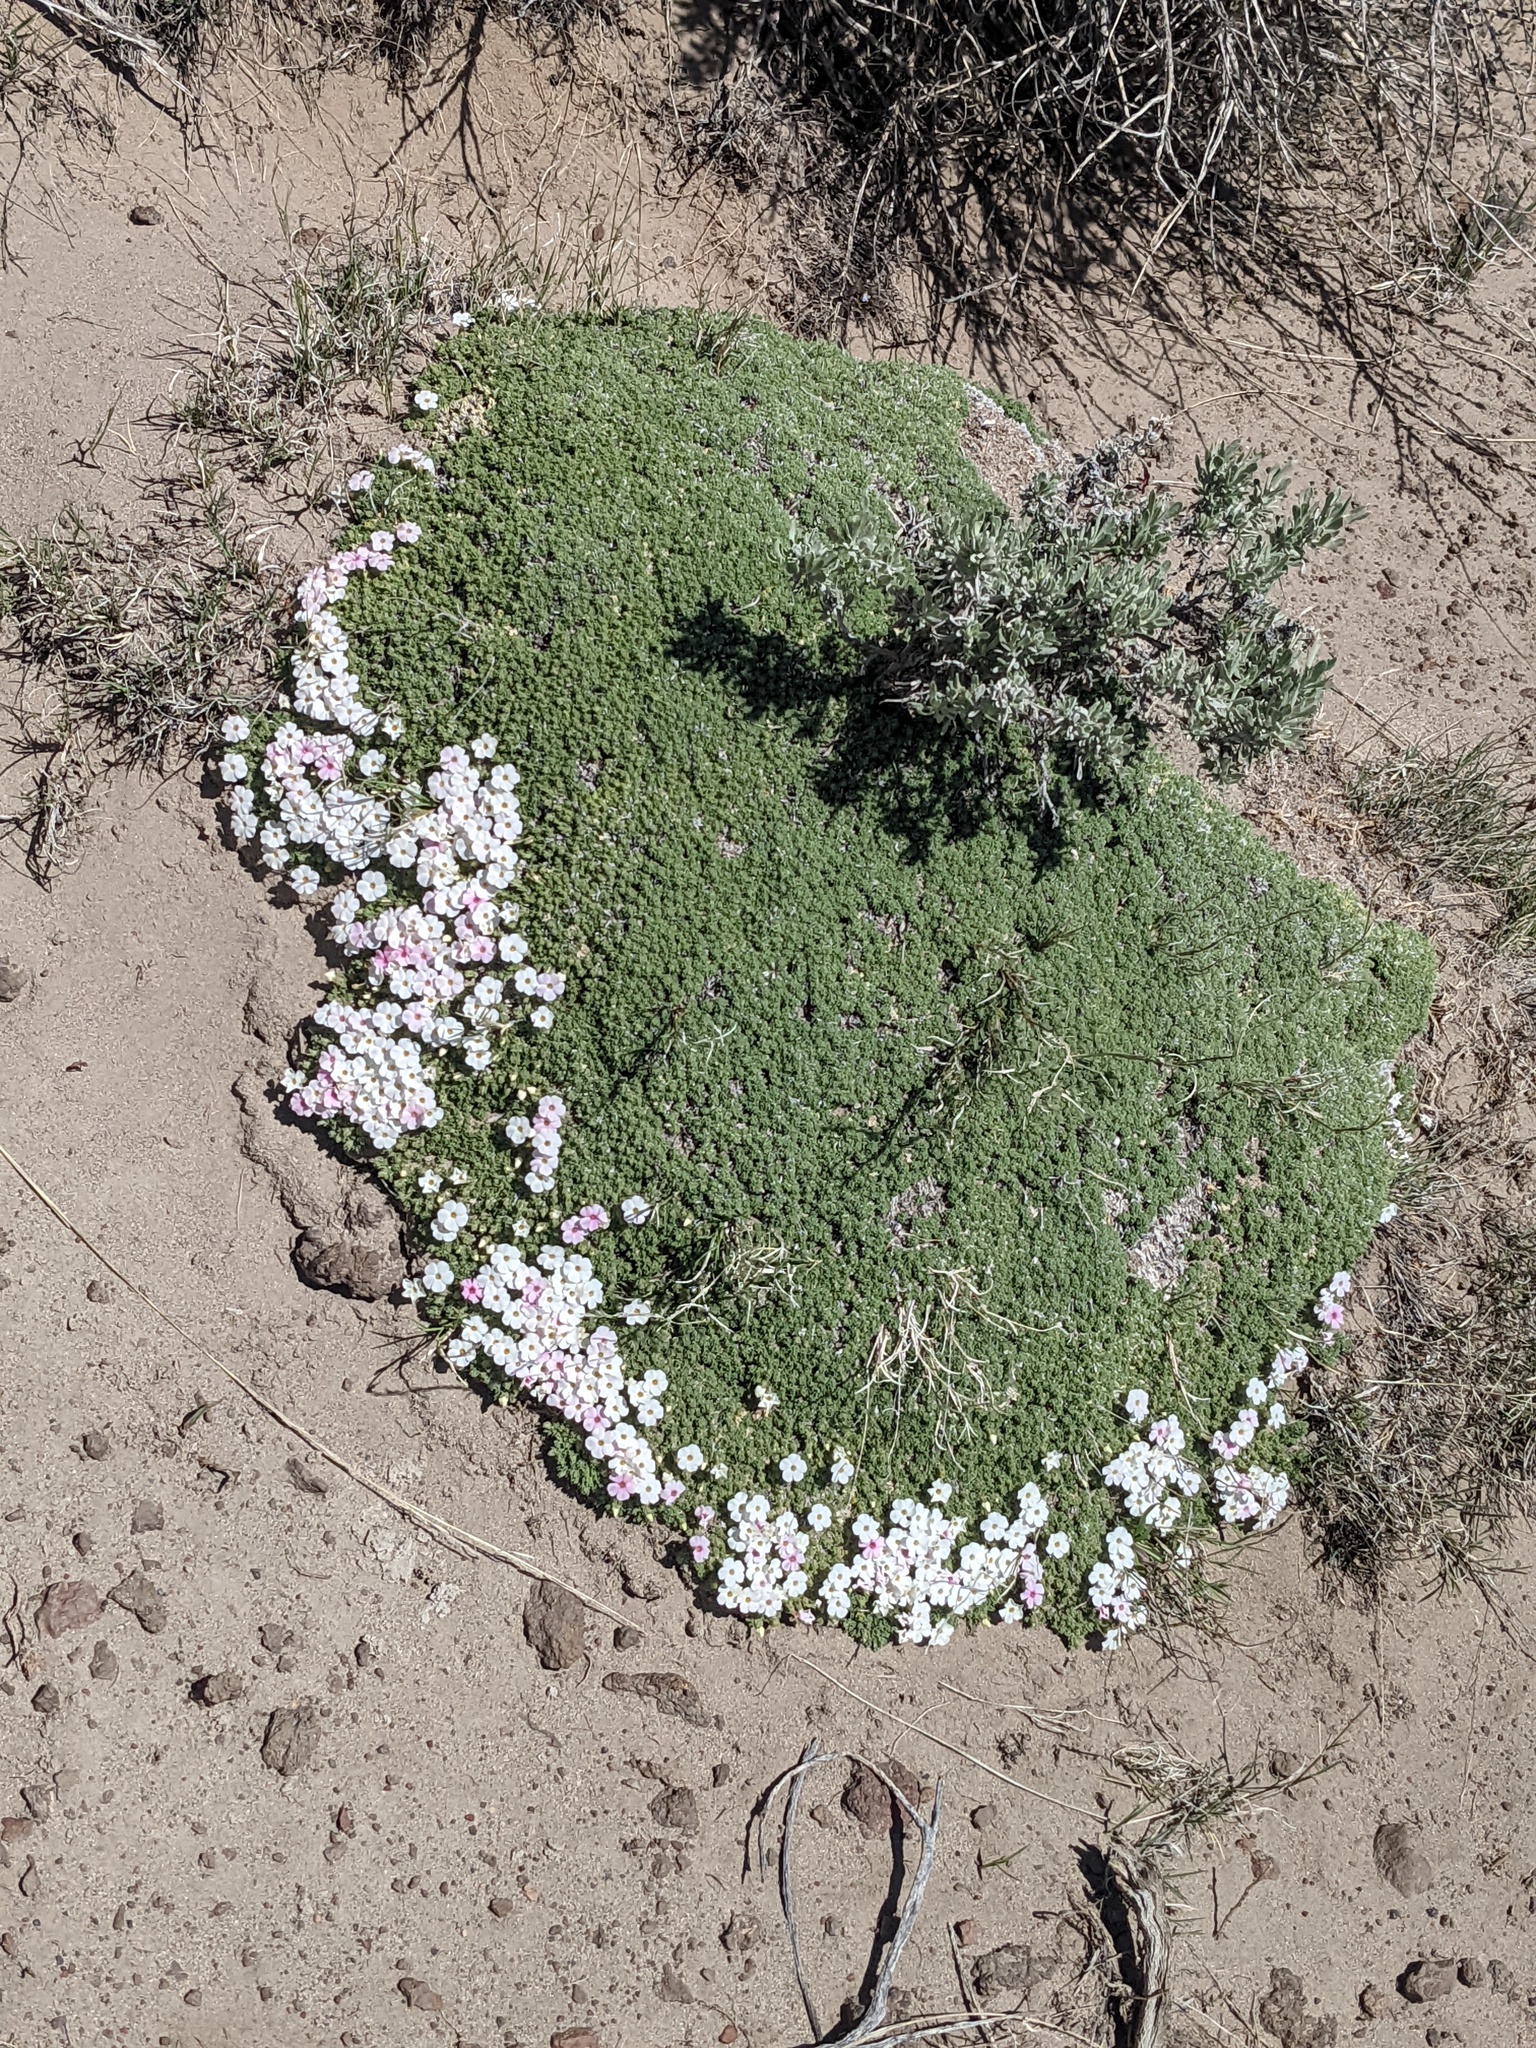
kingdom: Plantae
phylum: Tracheophyta
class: Magnoliopsida
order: Ericales
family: Polemoniaceae
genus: Phlox
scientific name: Phlox condensata
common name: Compact phlox
